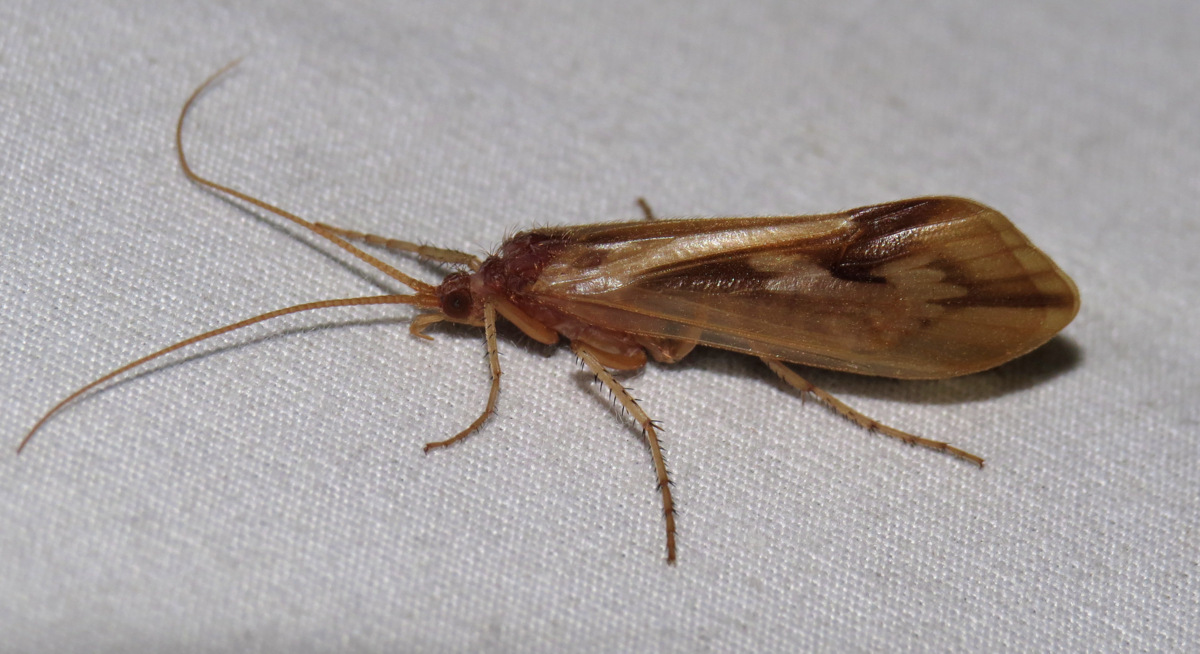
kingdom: Animalia
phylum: Arthropoda
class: Insecta
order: Trichoptera
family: Limnephilidae
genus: Platycentropus
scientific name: Platycentropus radiatus
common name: Chocolate-and-cream sedge
